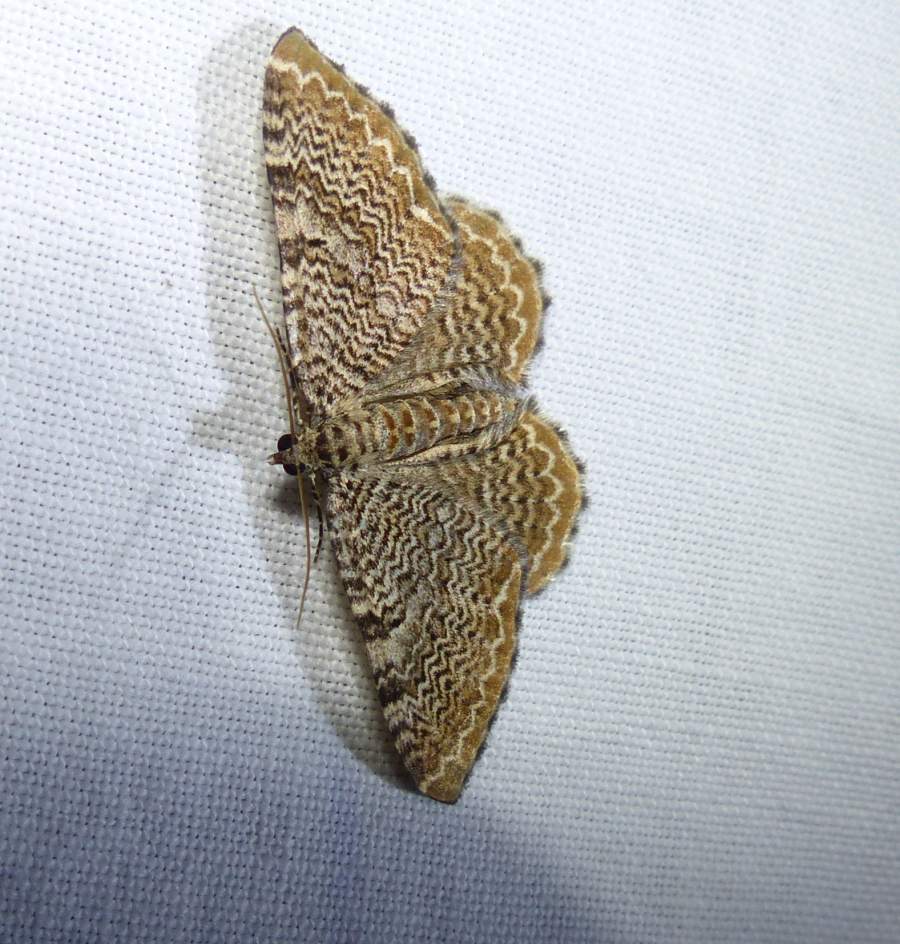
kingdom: Animalia
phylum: Arthropoda
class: Insecta
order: Lepidoptera
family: Geometridae
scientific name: Geometridae
